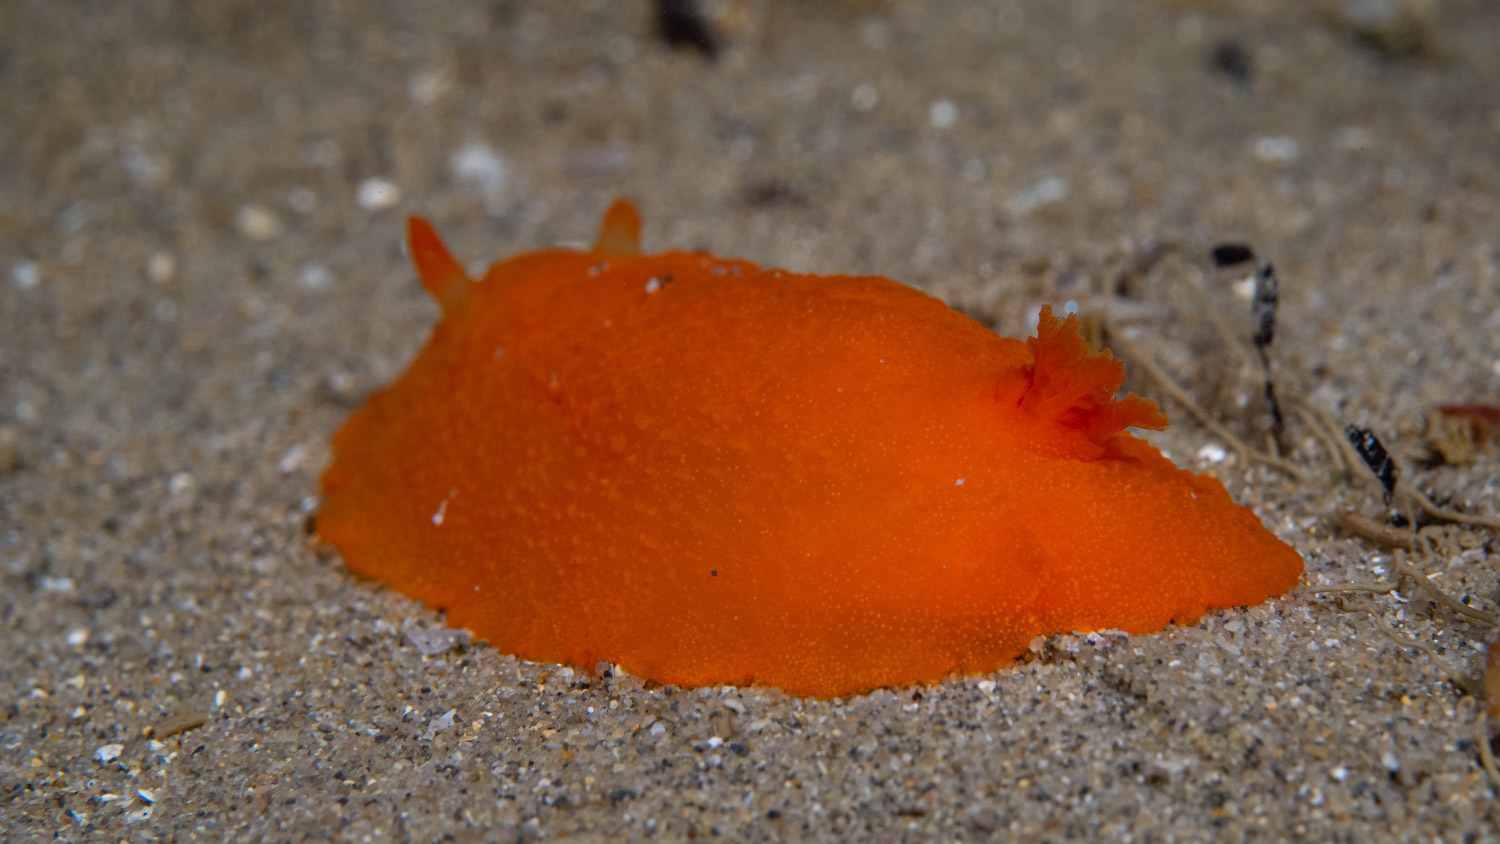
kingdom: Animalia
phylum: Mollusca
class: Gastropoda
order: Nudibranchia
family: Dendrodorididae
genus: Doriopsilla
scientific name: Doriopsilla carneola
